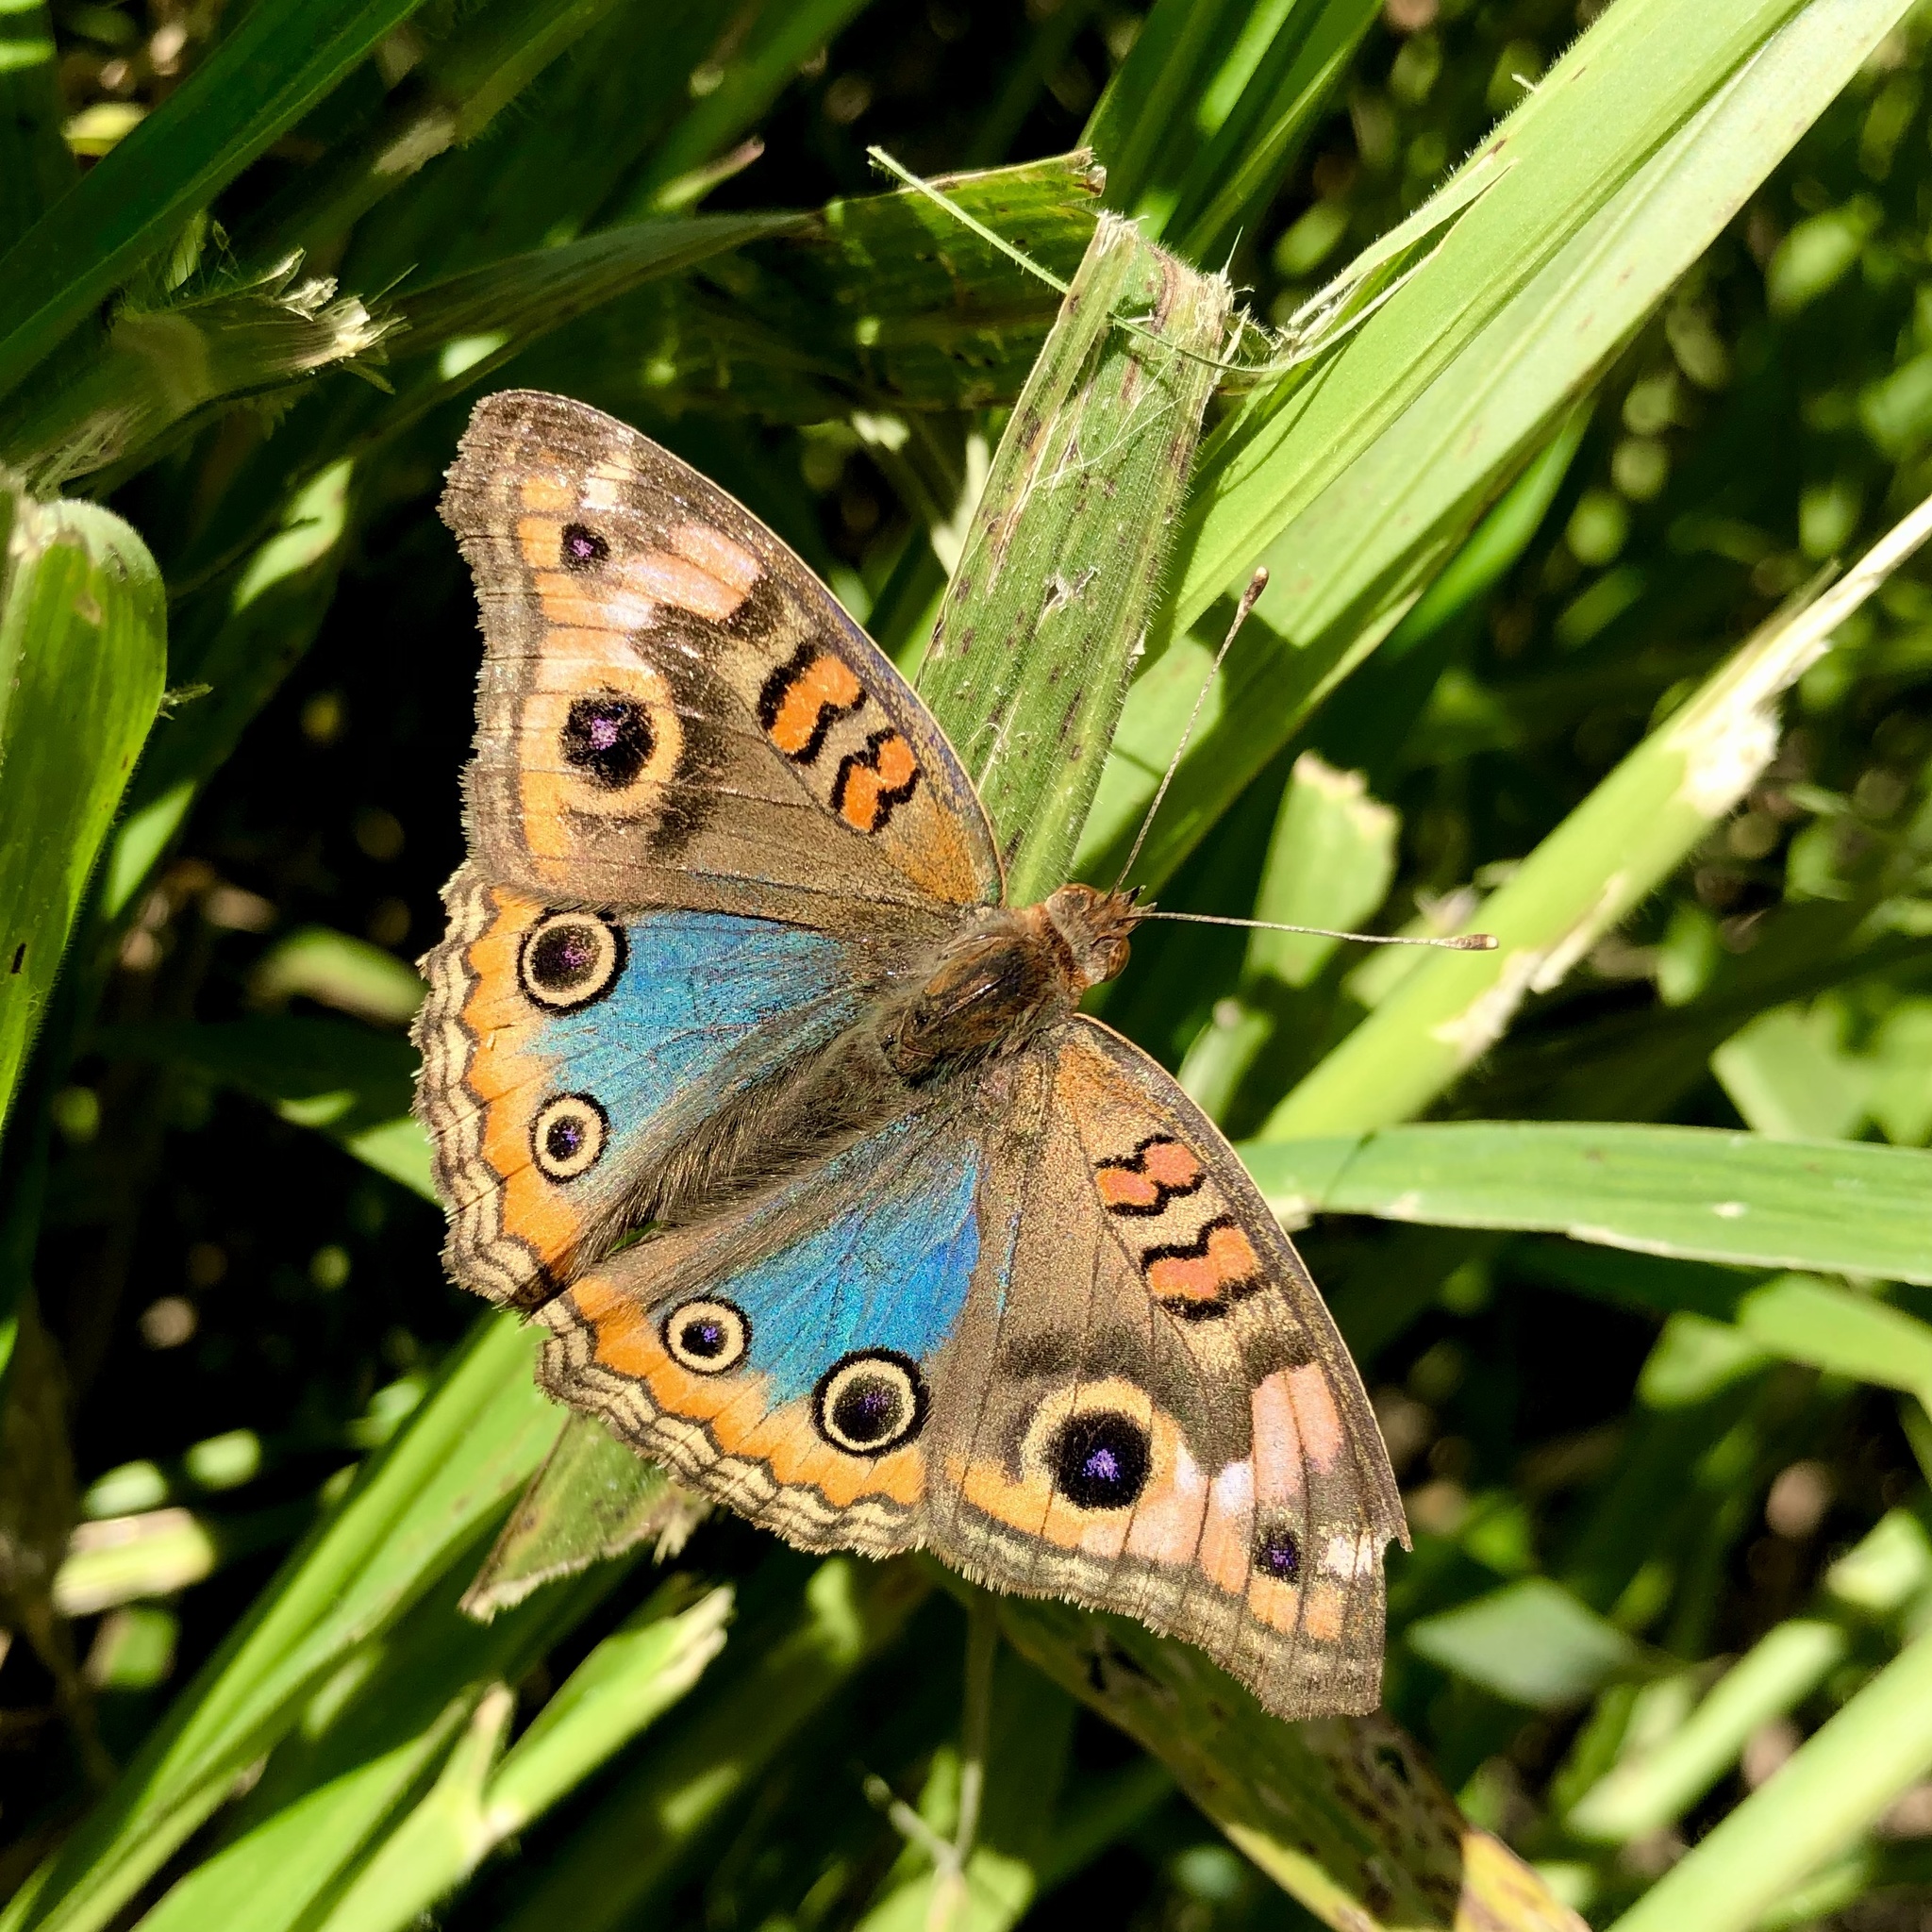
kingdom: Animalia
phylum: Arthropoda
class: Insecta
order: Lepidoptera
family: Nymphalidae
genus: Junonia
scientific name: Junonia lavinia
